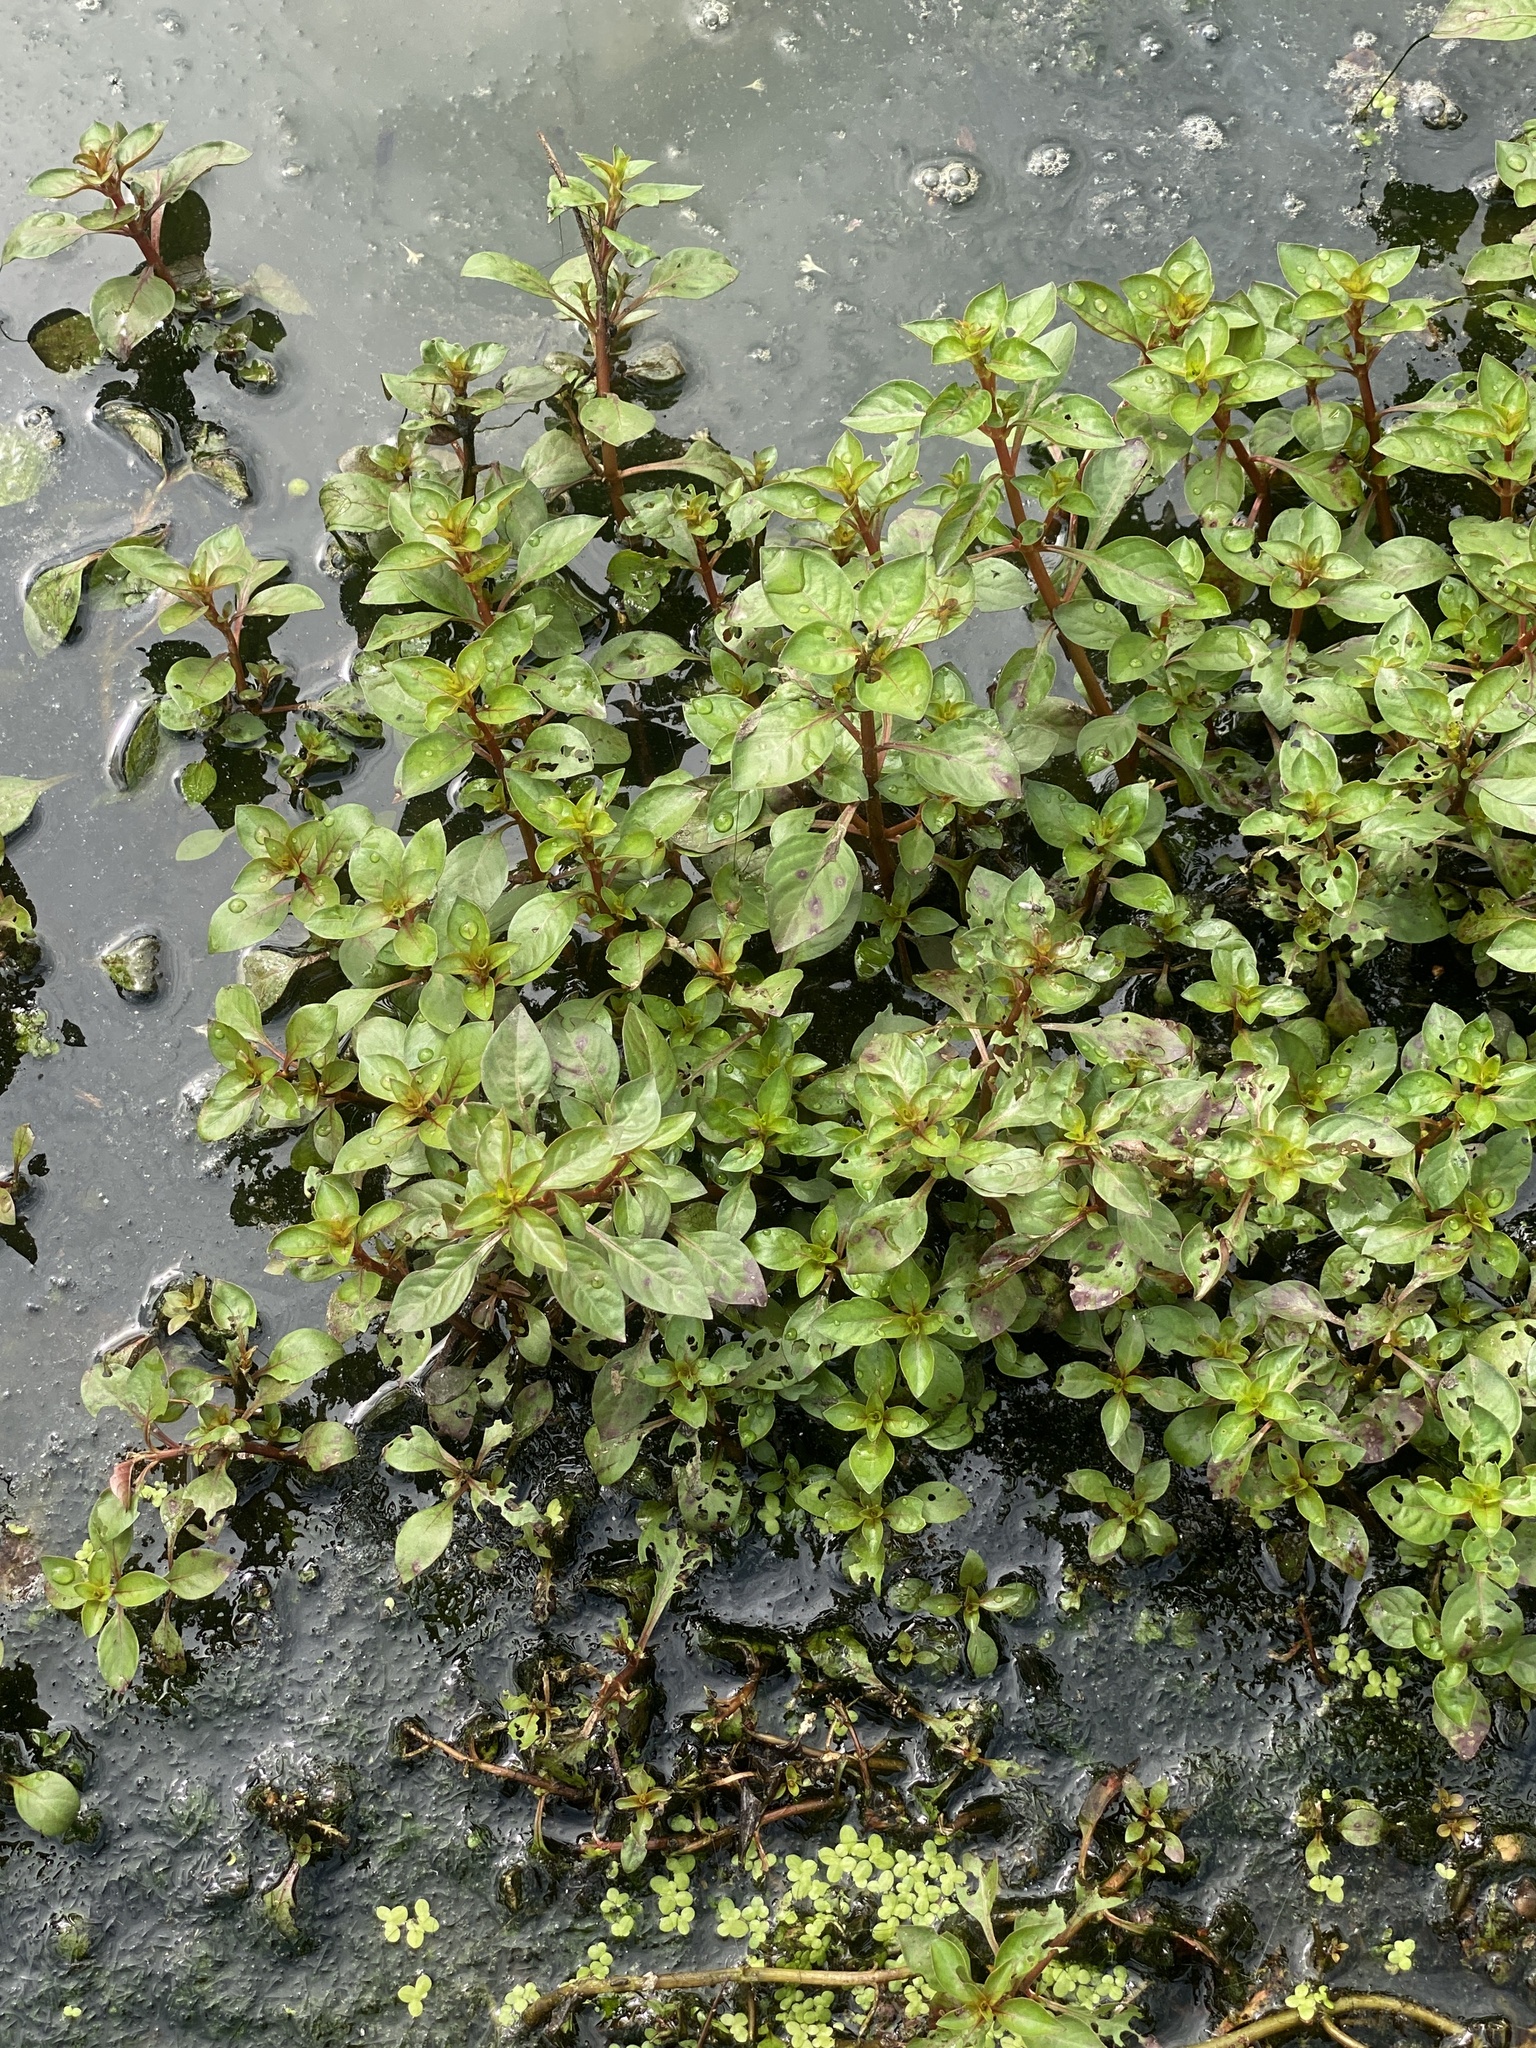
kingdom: Plantae
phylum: Tracheophyta
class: Magnoliopsida
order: Myrtales
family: Onagraceae
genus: Ludwigia
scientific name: Ludwigia palustris
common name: Hampshire-purslane
